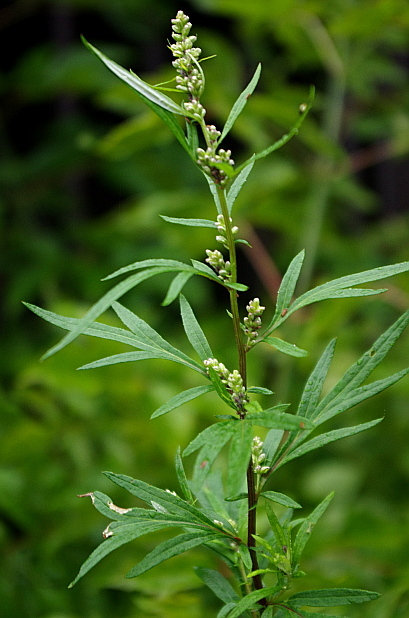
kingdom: Plantae
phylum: Tracheophyta
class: Magnoliopsida
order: Asterales
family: Asteraceae
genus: Artemisia
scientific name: Artemisia vulgaris
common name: Mugwort
